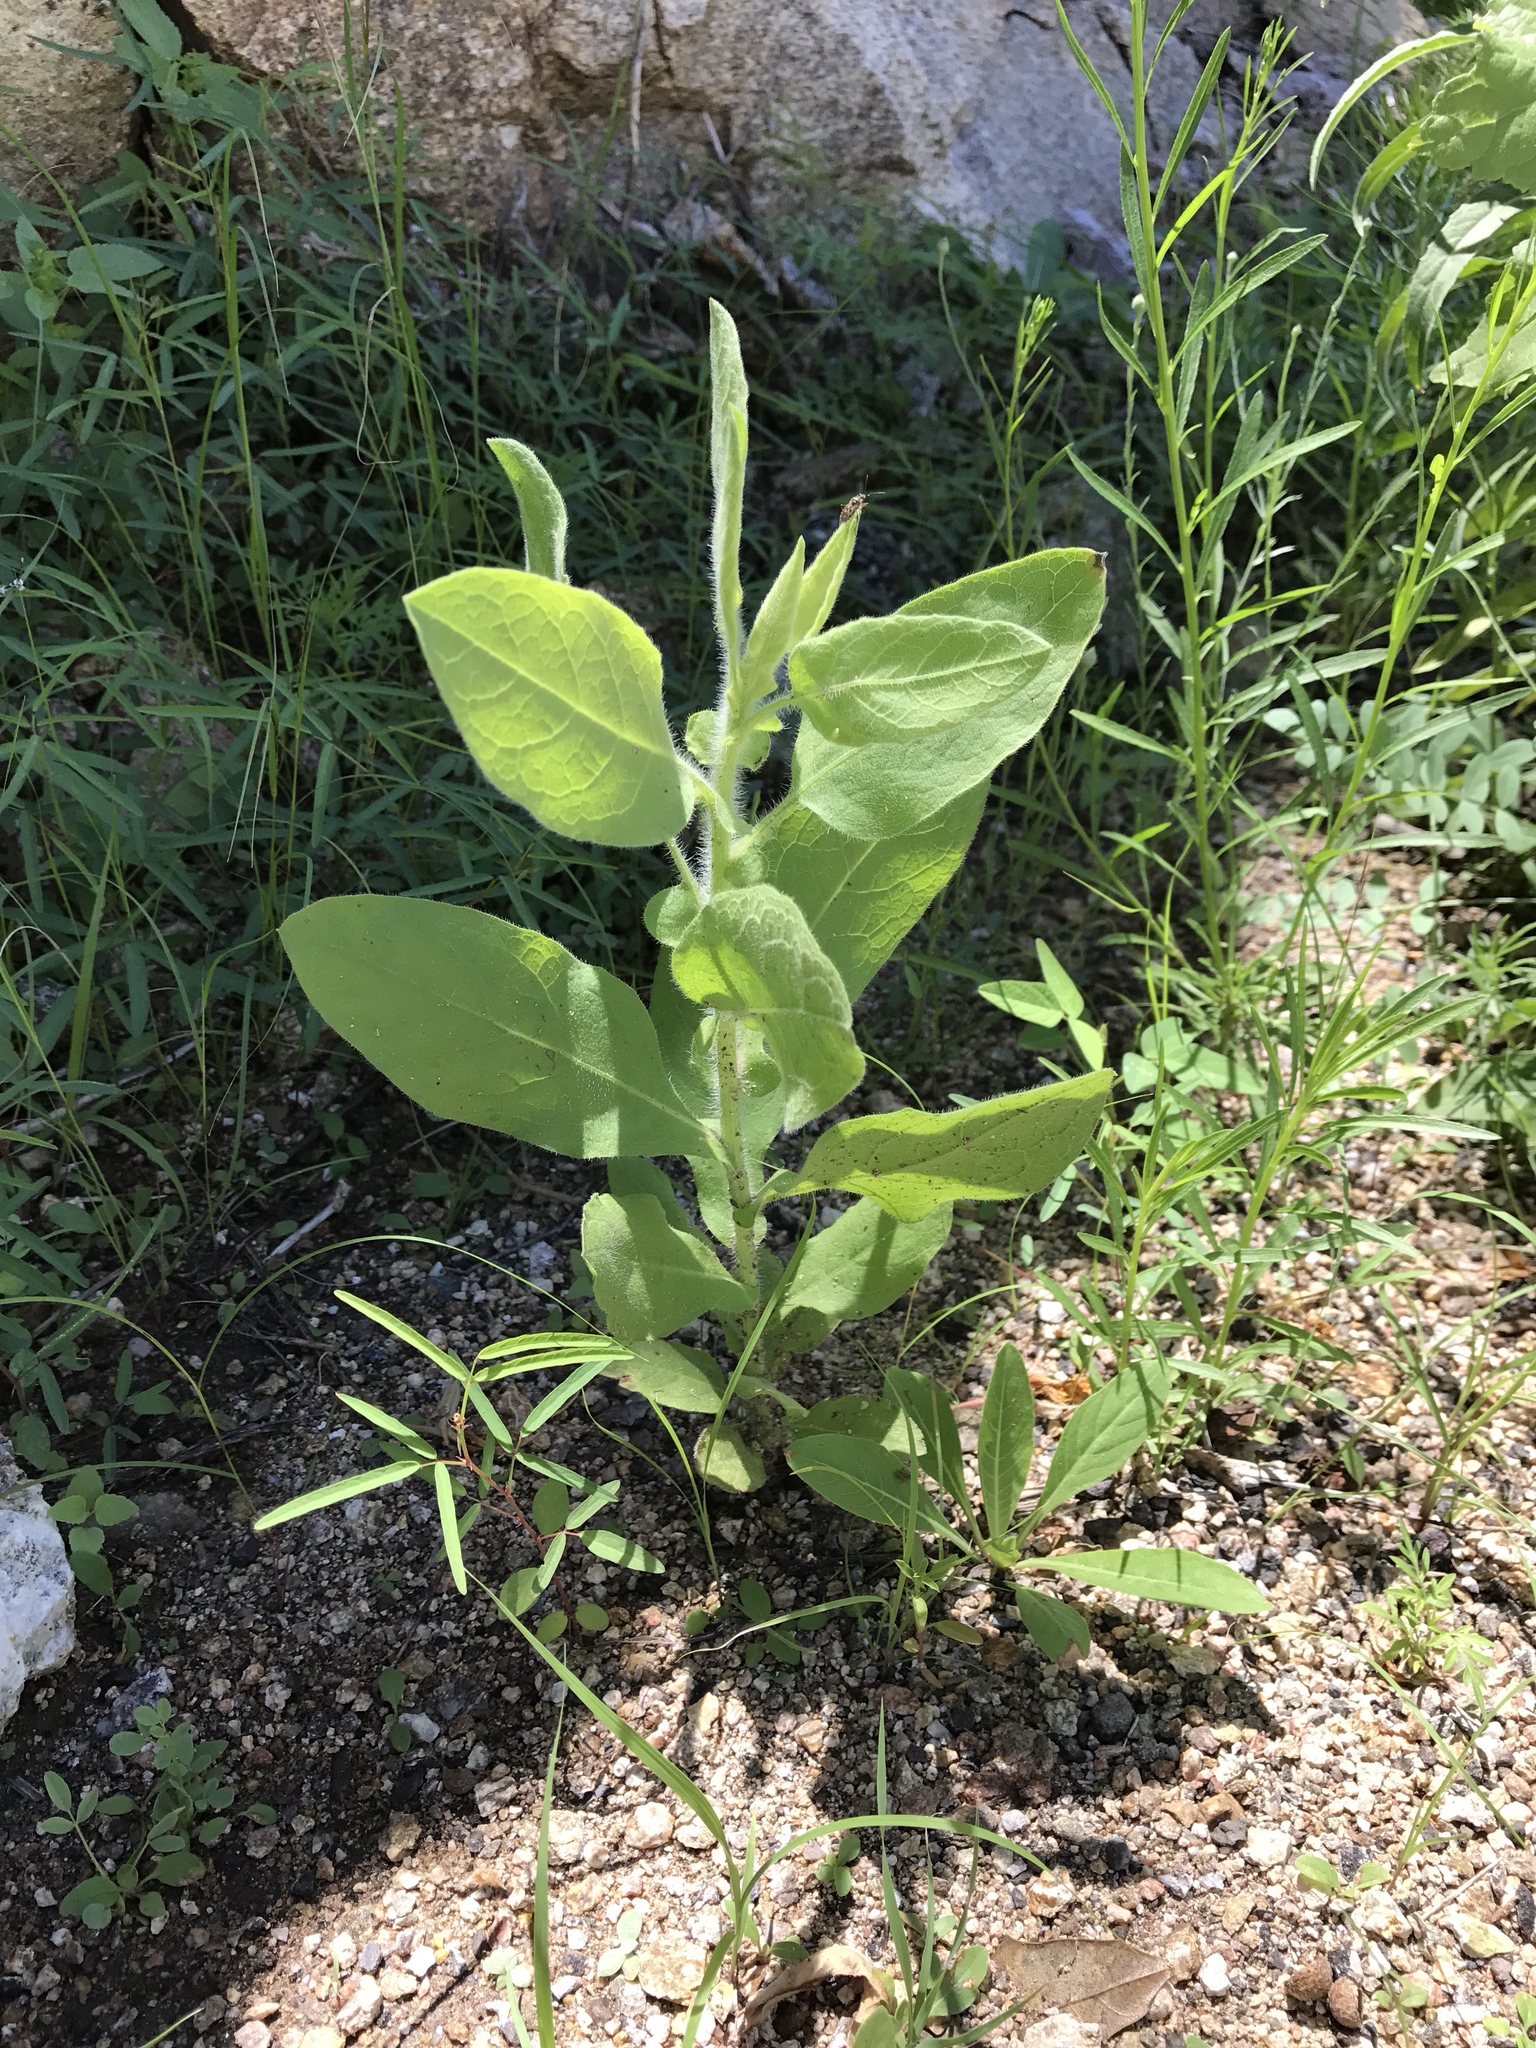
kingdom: Plantae
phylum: Tracheophyta
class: Magnoliopsida
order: Solanales
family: Solanaceae
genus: Nicotiana
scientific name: Nicotiana obtusifolia
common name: Desert tobacco
